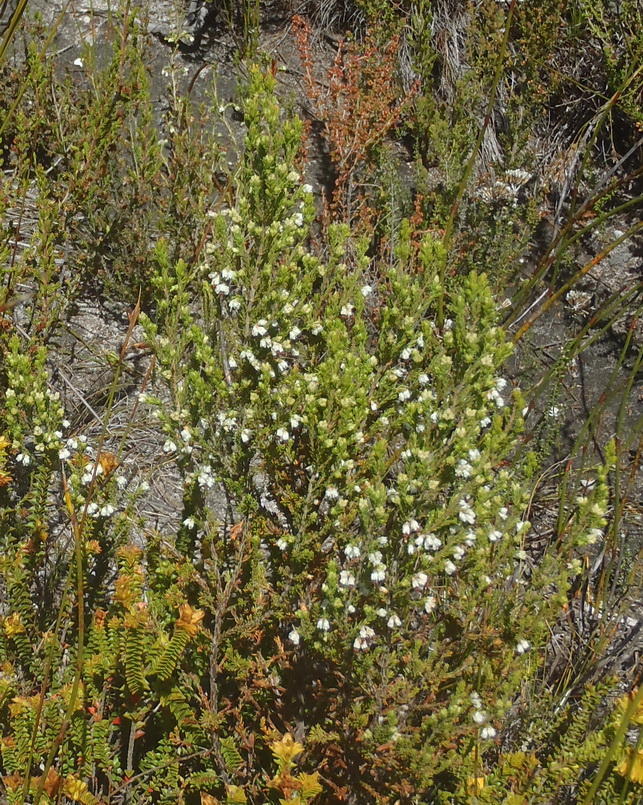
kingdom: Plantae
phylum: Tracheophyta
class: Magnoliopsida
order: Ericales
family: Ericaceae
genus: Erica
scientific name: Erica imbricata
